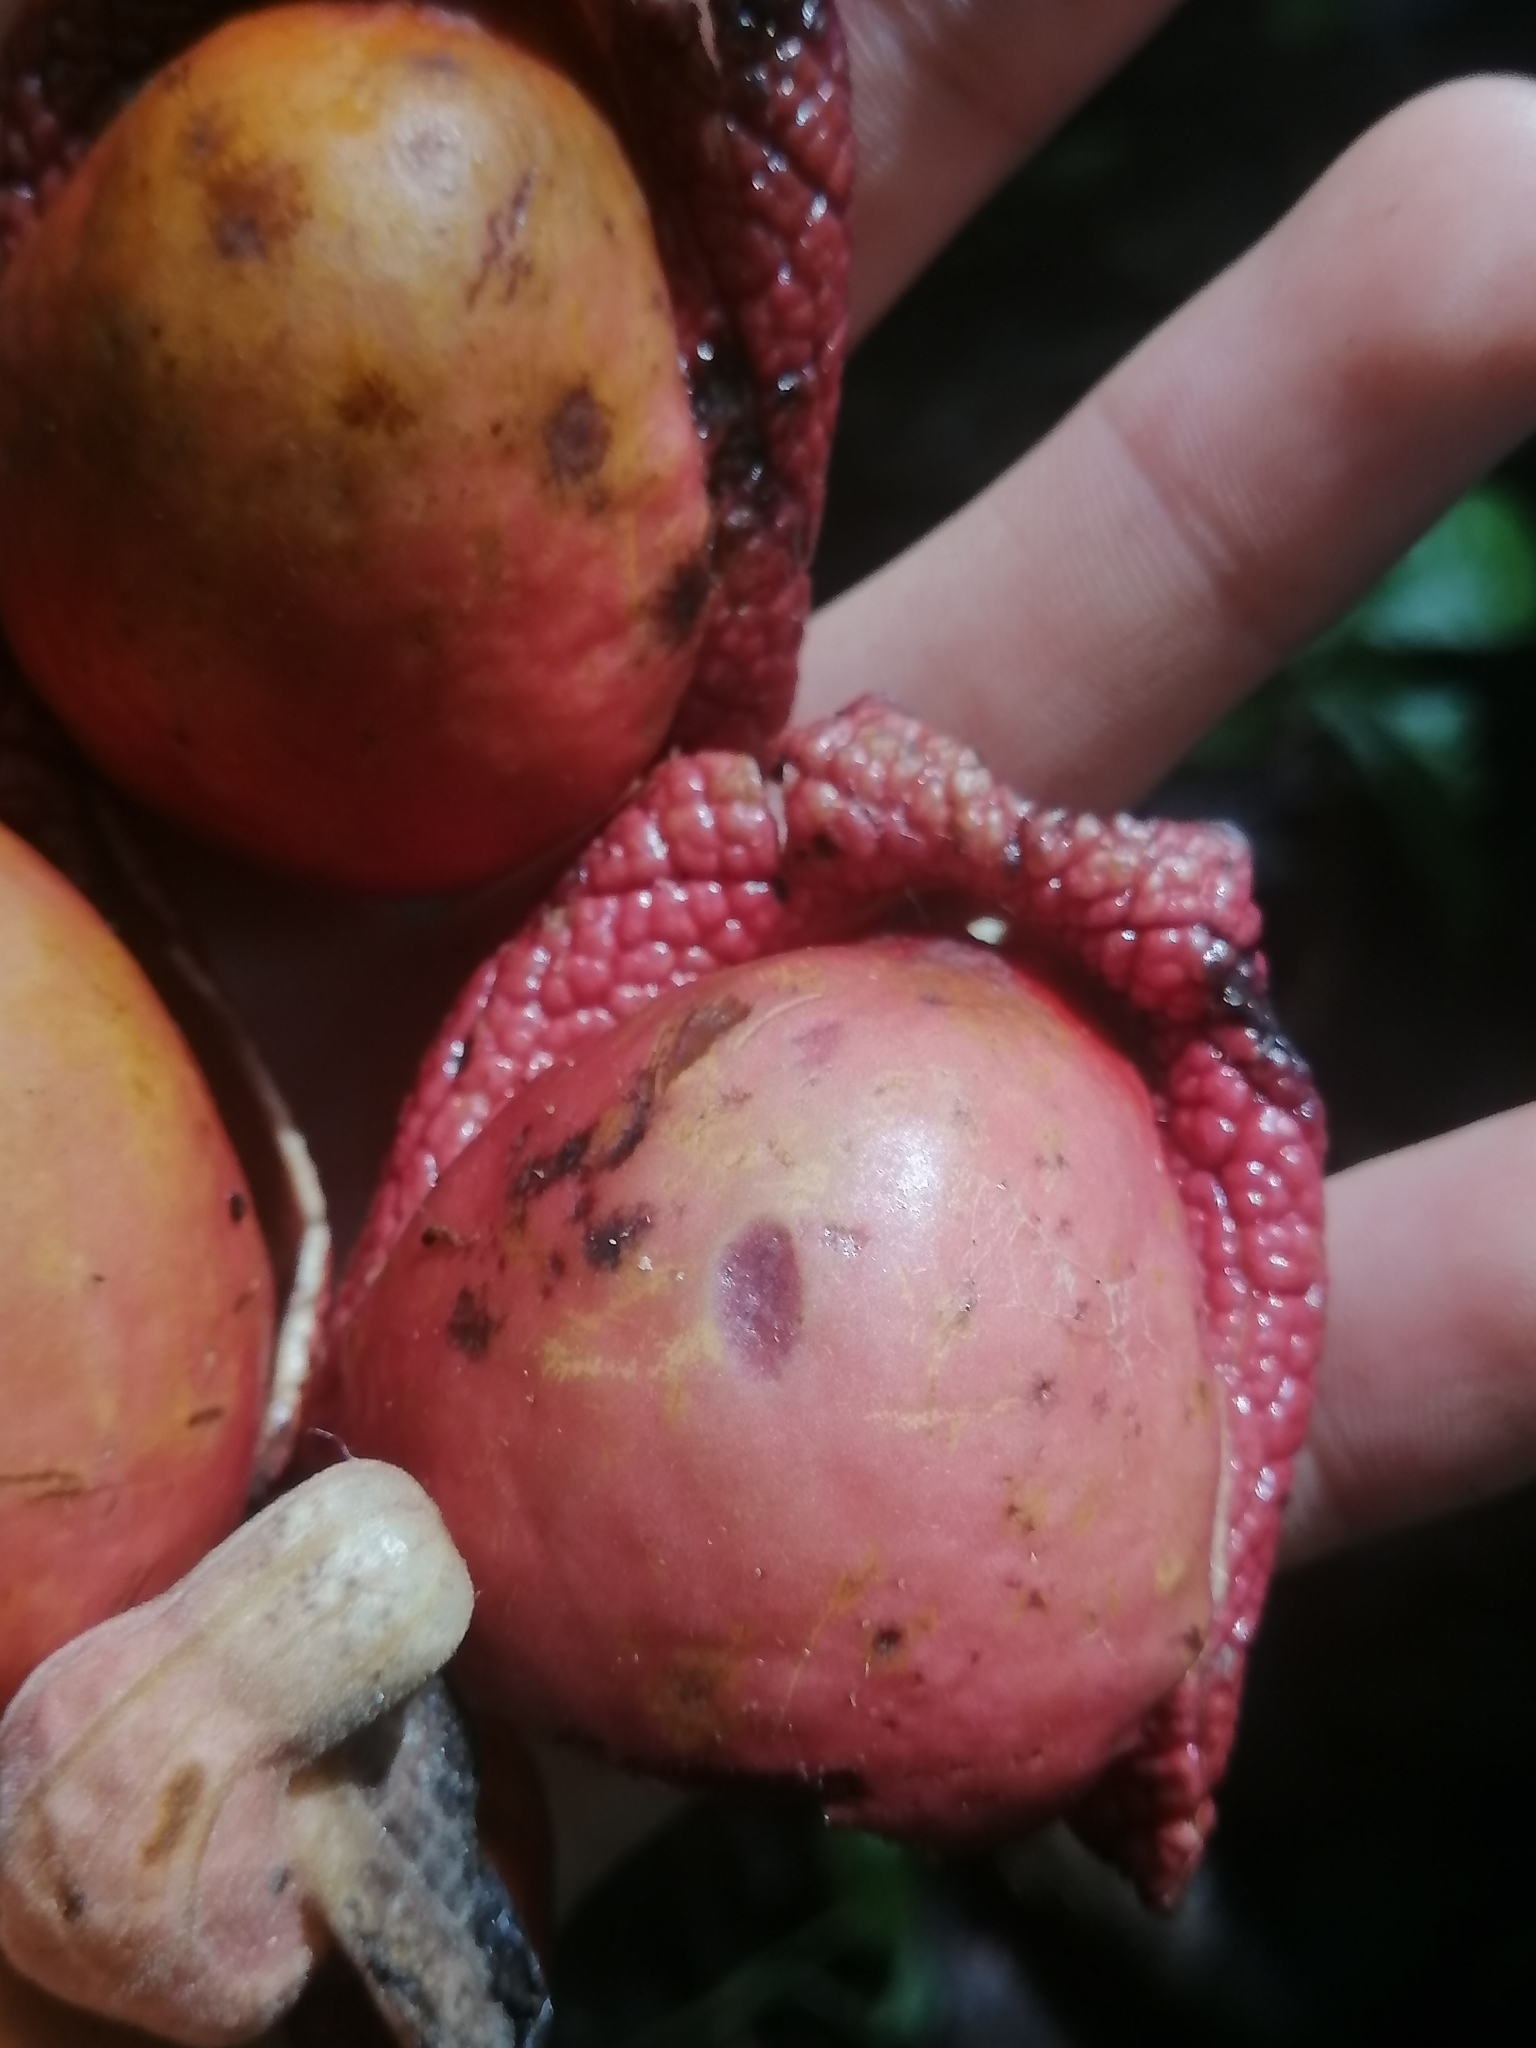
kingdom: Plantae
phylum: Tracheophyta
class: Magnoliopsida
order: Piperales
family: Aristolochiaceae
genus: Isotrema
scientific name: Isotrema paracletum
